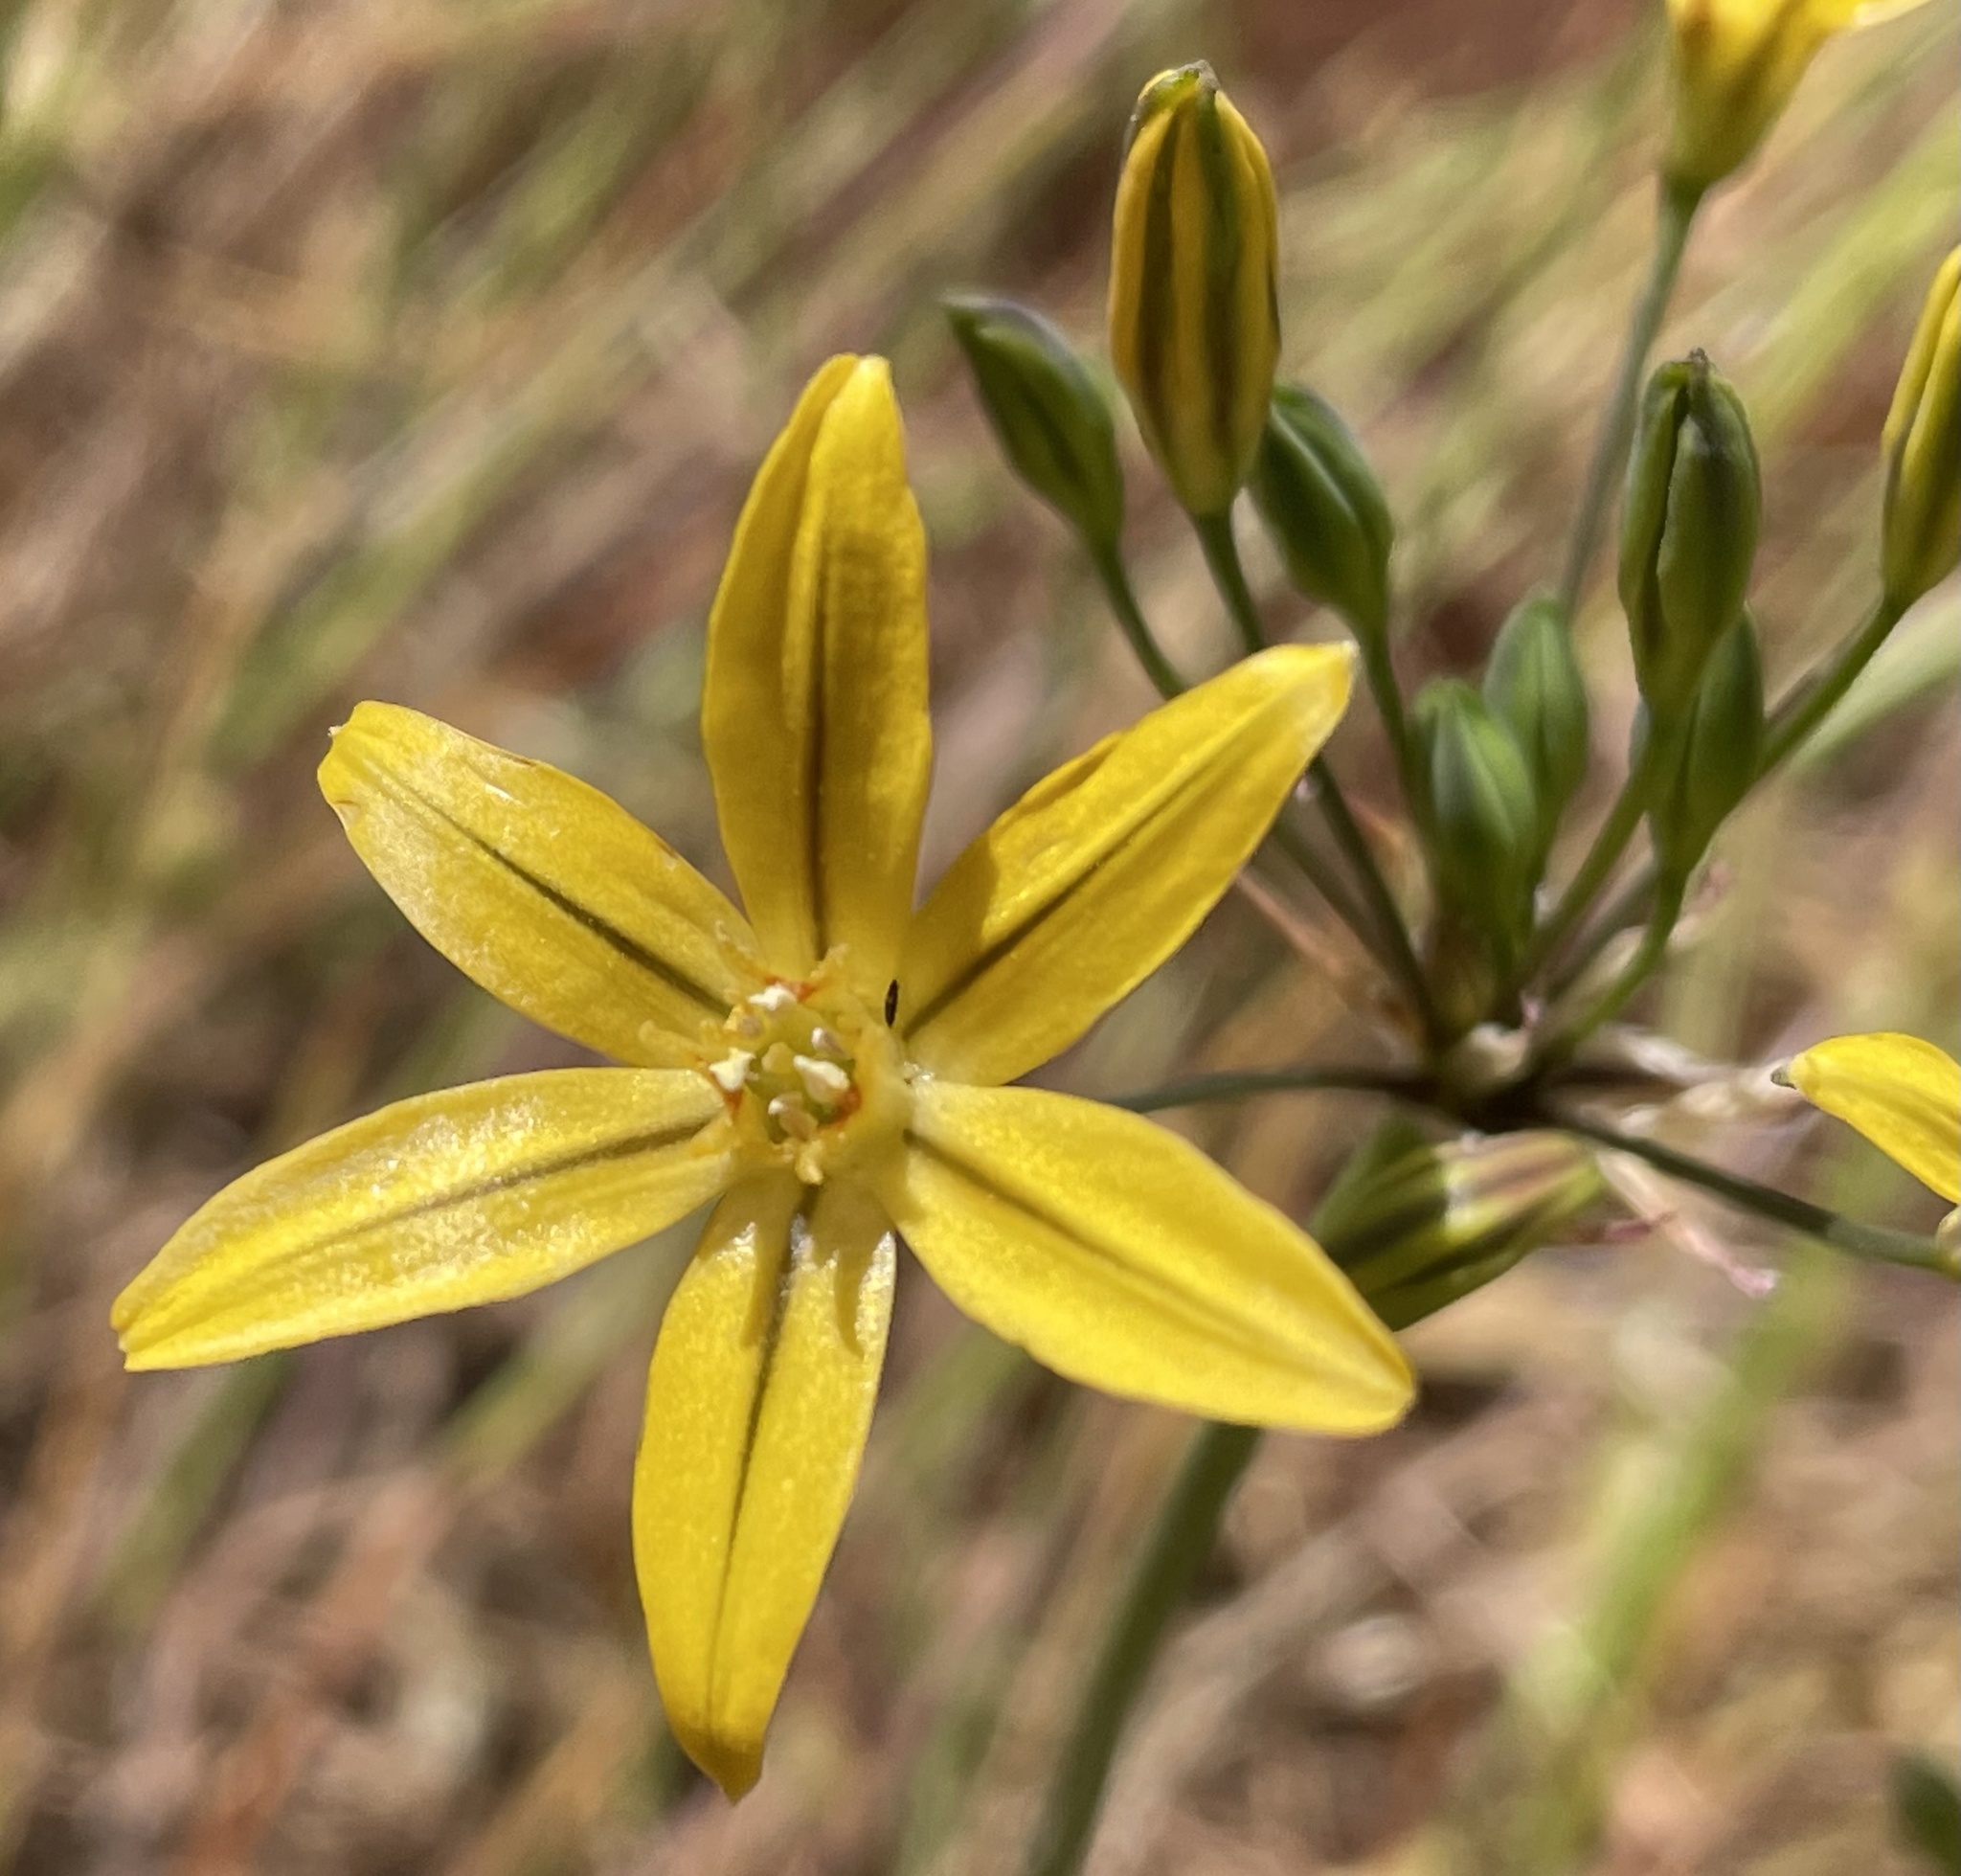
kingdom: Plantae
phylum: Tracheophyta
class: Liliopsida
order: Asparagales
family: Asparagaceae
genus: Triteleia
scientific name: Triteleia ixioides
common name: Yellow-brodiaea
